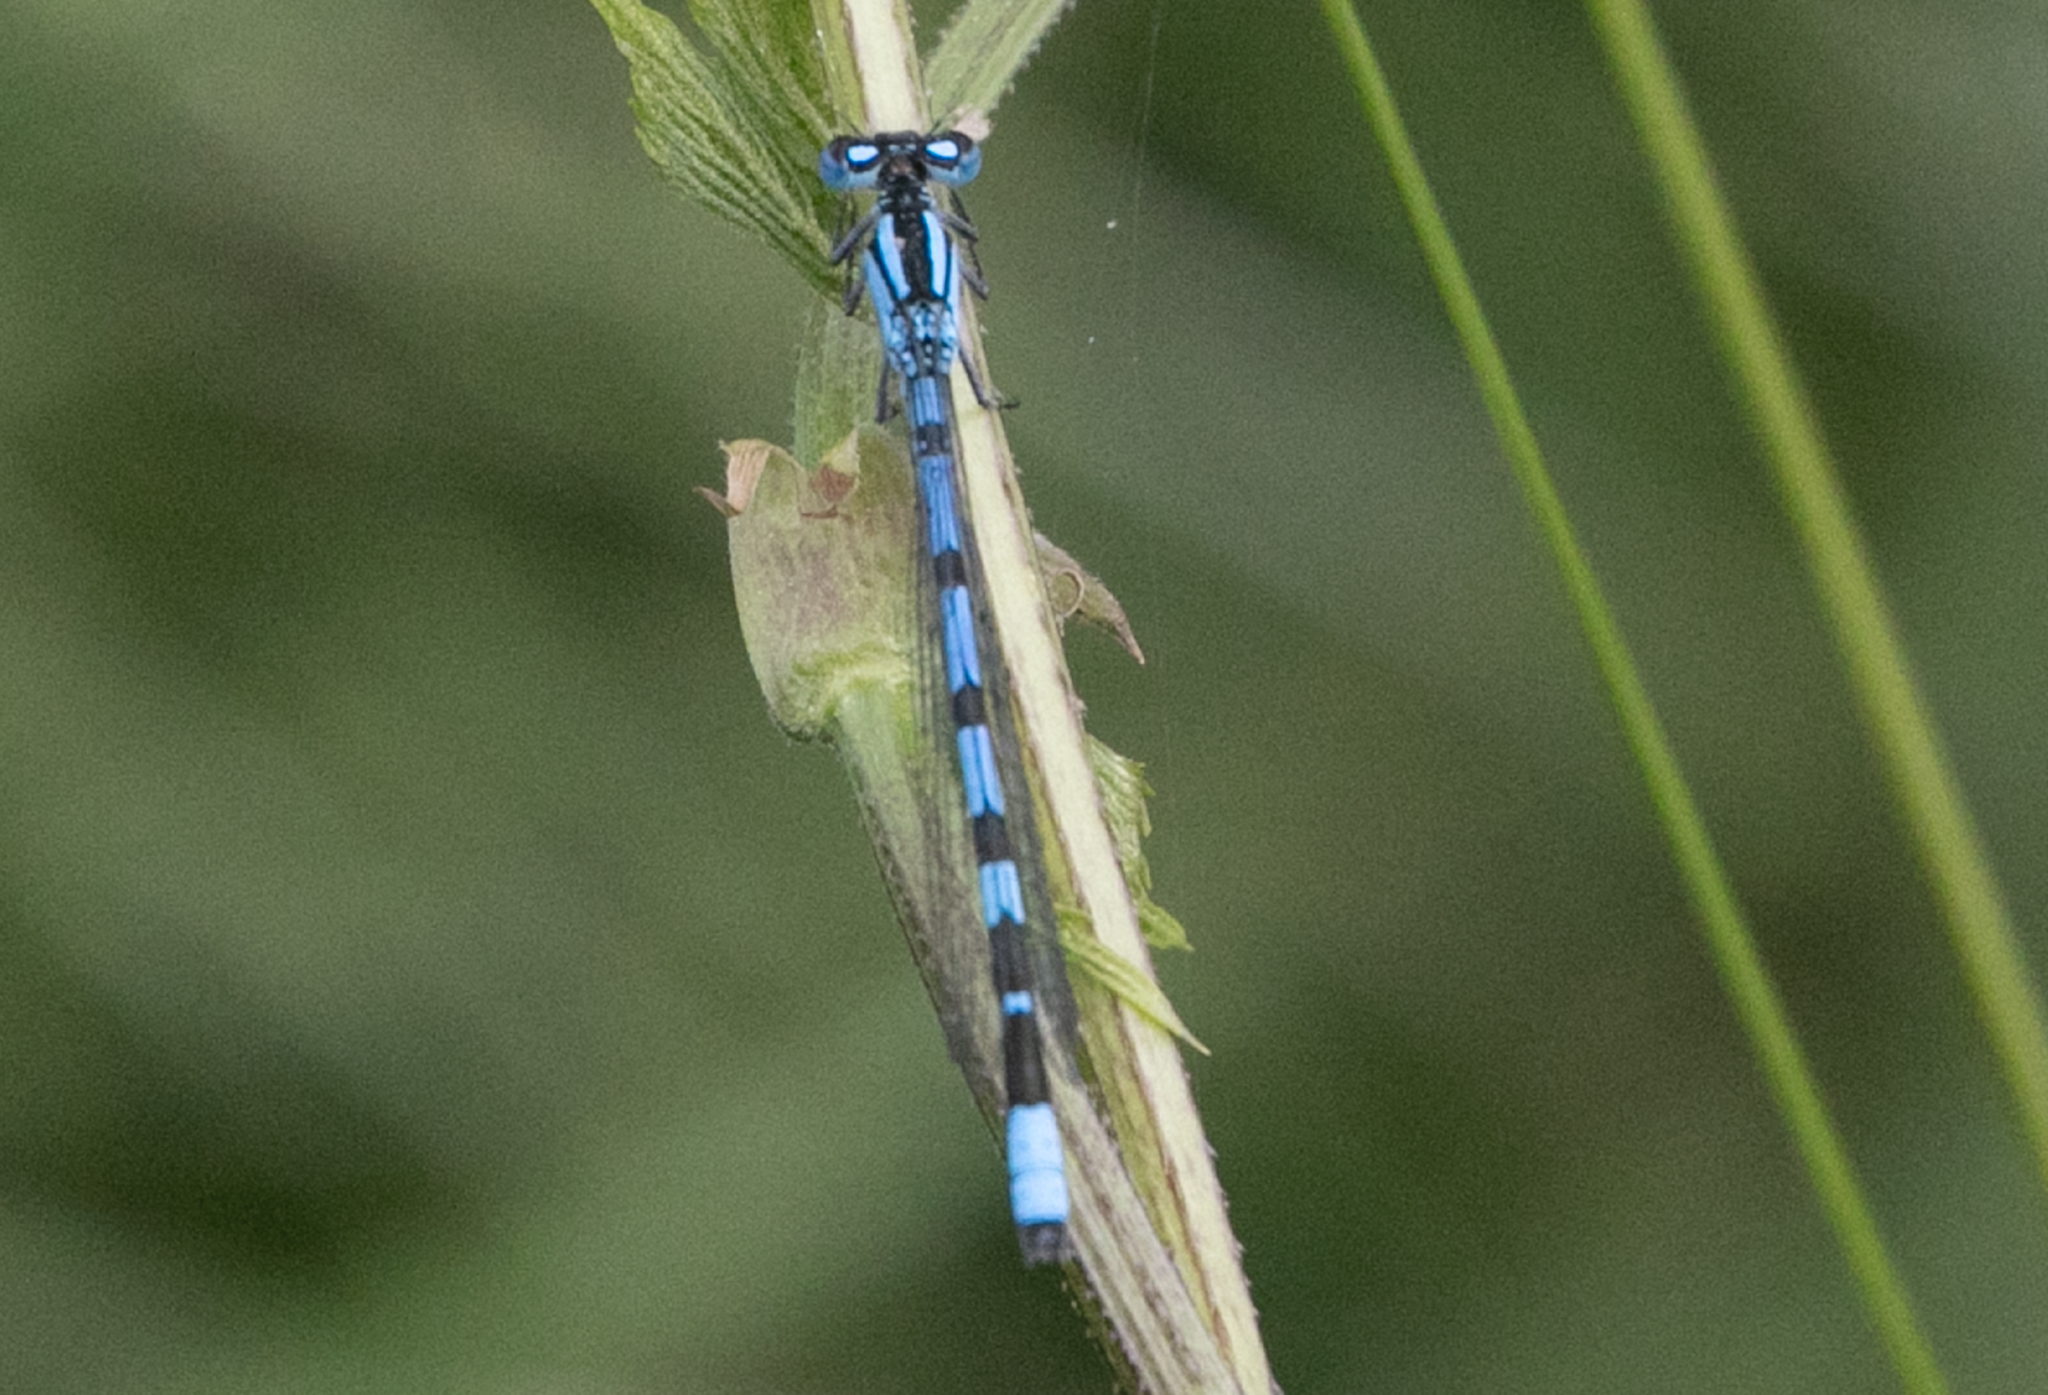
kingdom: Animalia
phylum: Arthropoda
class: Insecta
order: Odonata
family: Coenagrionidae
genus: Enallagma
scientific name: Enallagma cyathigerum
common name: Common blue damselfly
